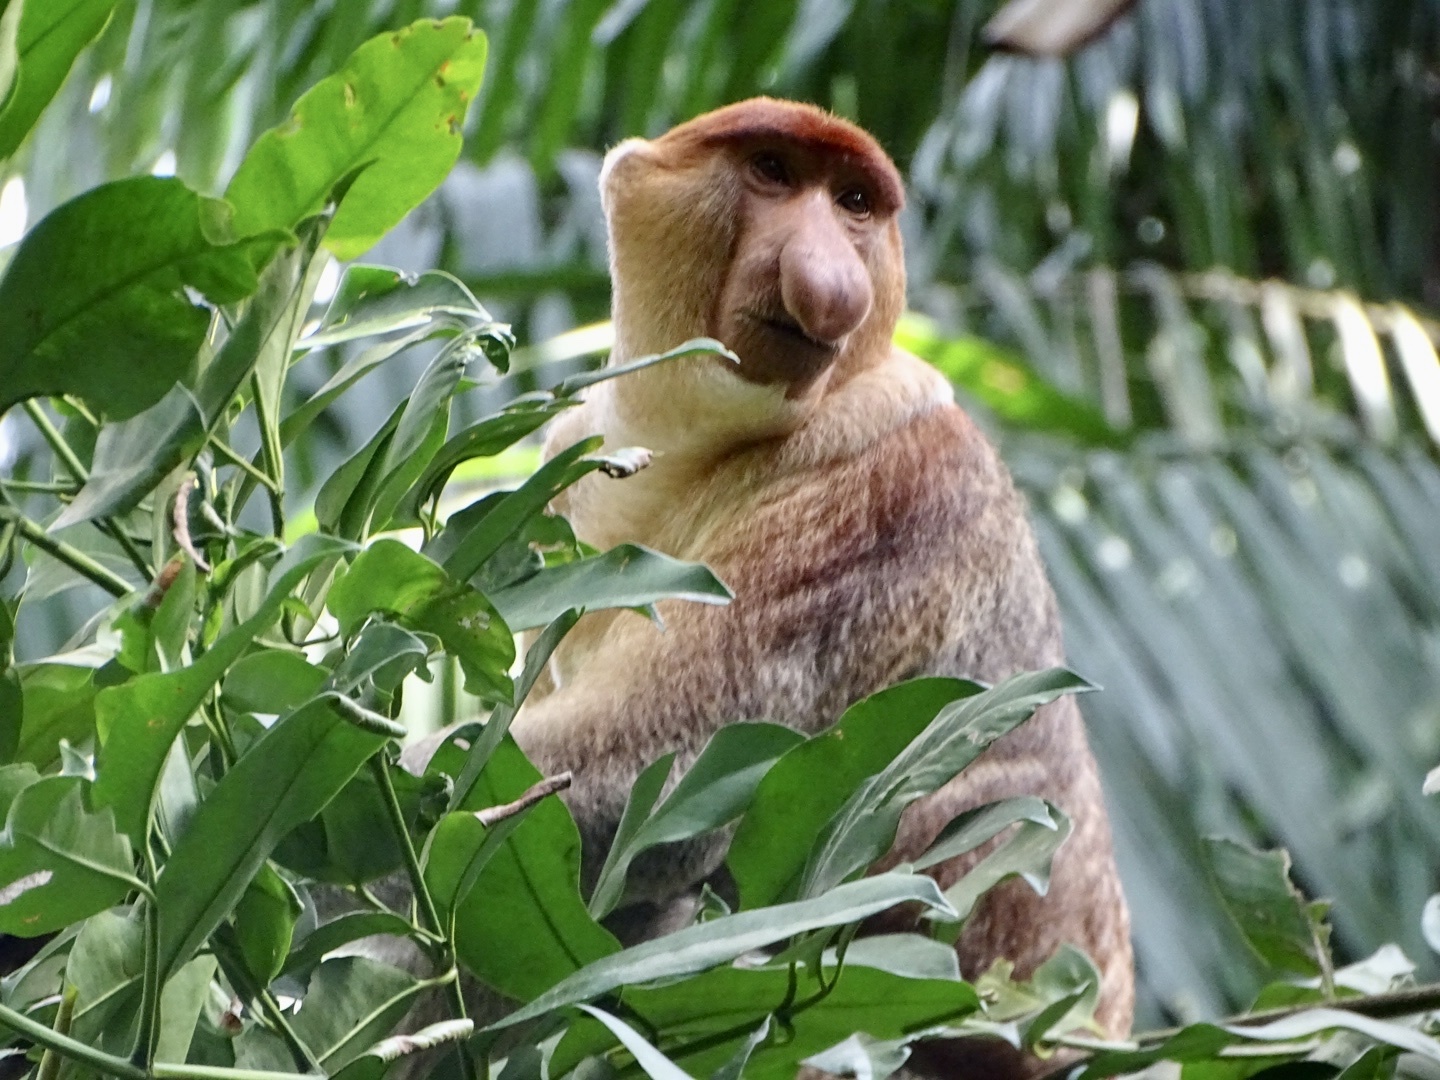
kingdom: Animalia
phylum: Chordata
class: Mammalia
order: Primates
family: Cercopithecidae
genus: Nasalis
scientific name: Nasalis larvatus
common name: Proboscis monkey
